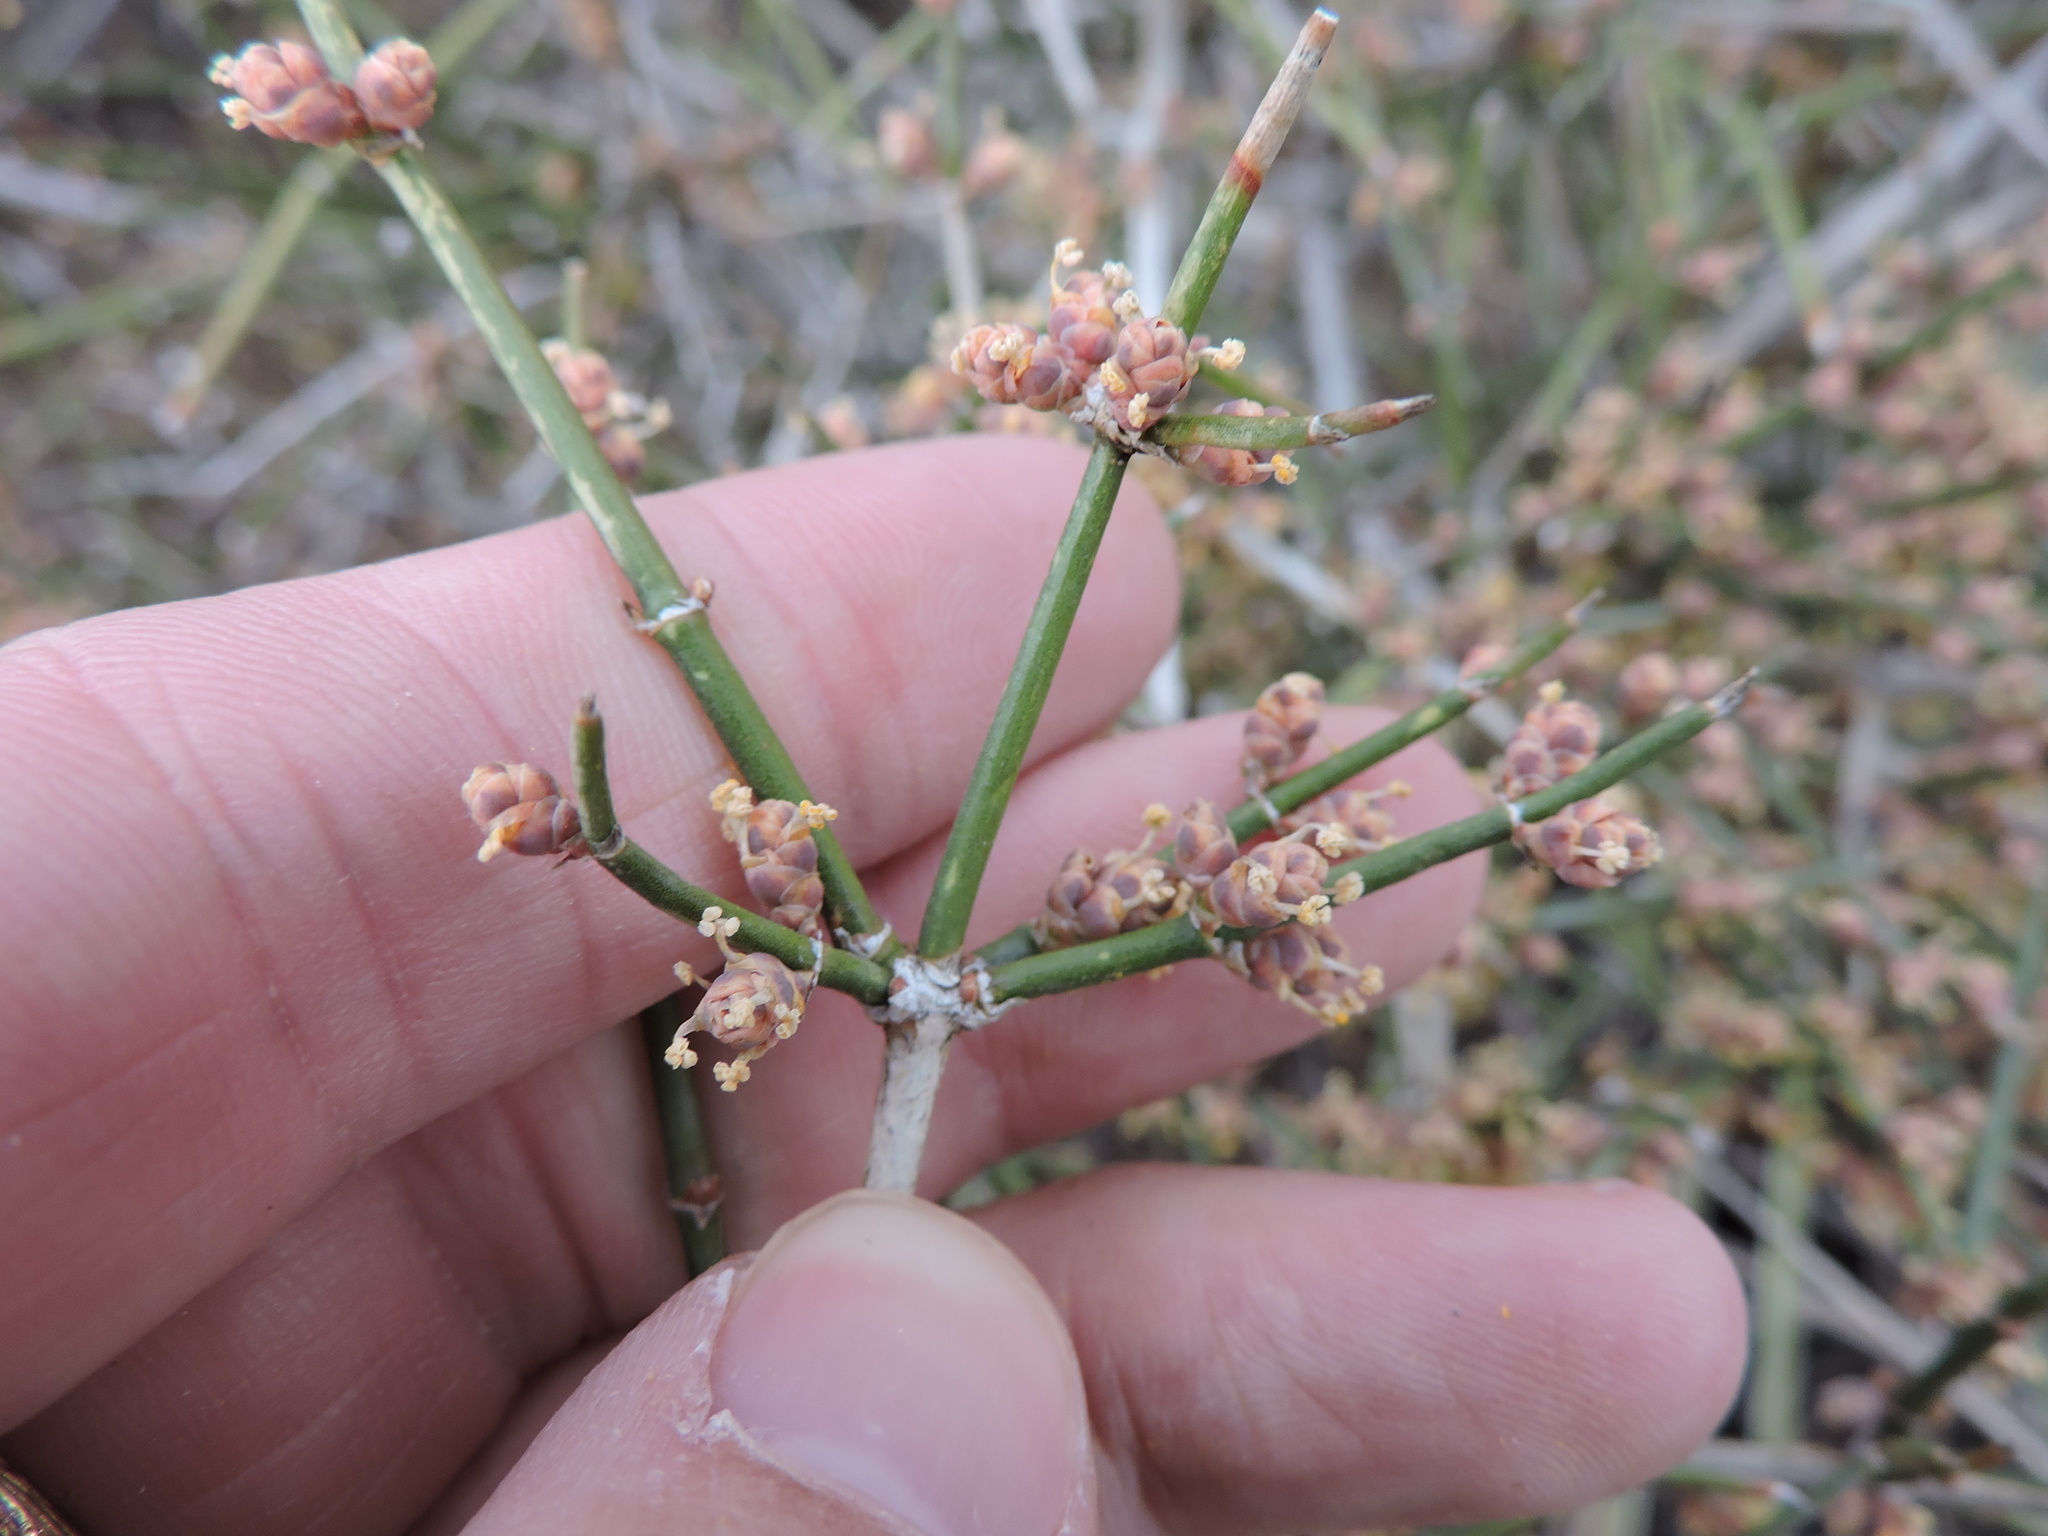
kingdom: Plantae
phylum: Tracheophyta
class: Gnetopsida
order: Ephedrales
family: Ephedraceae
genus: Ephedra
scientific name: Ephedra antisyphilitica
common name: Clipweed
